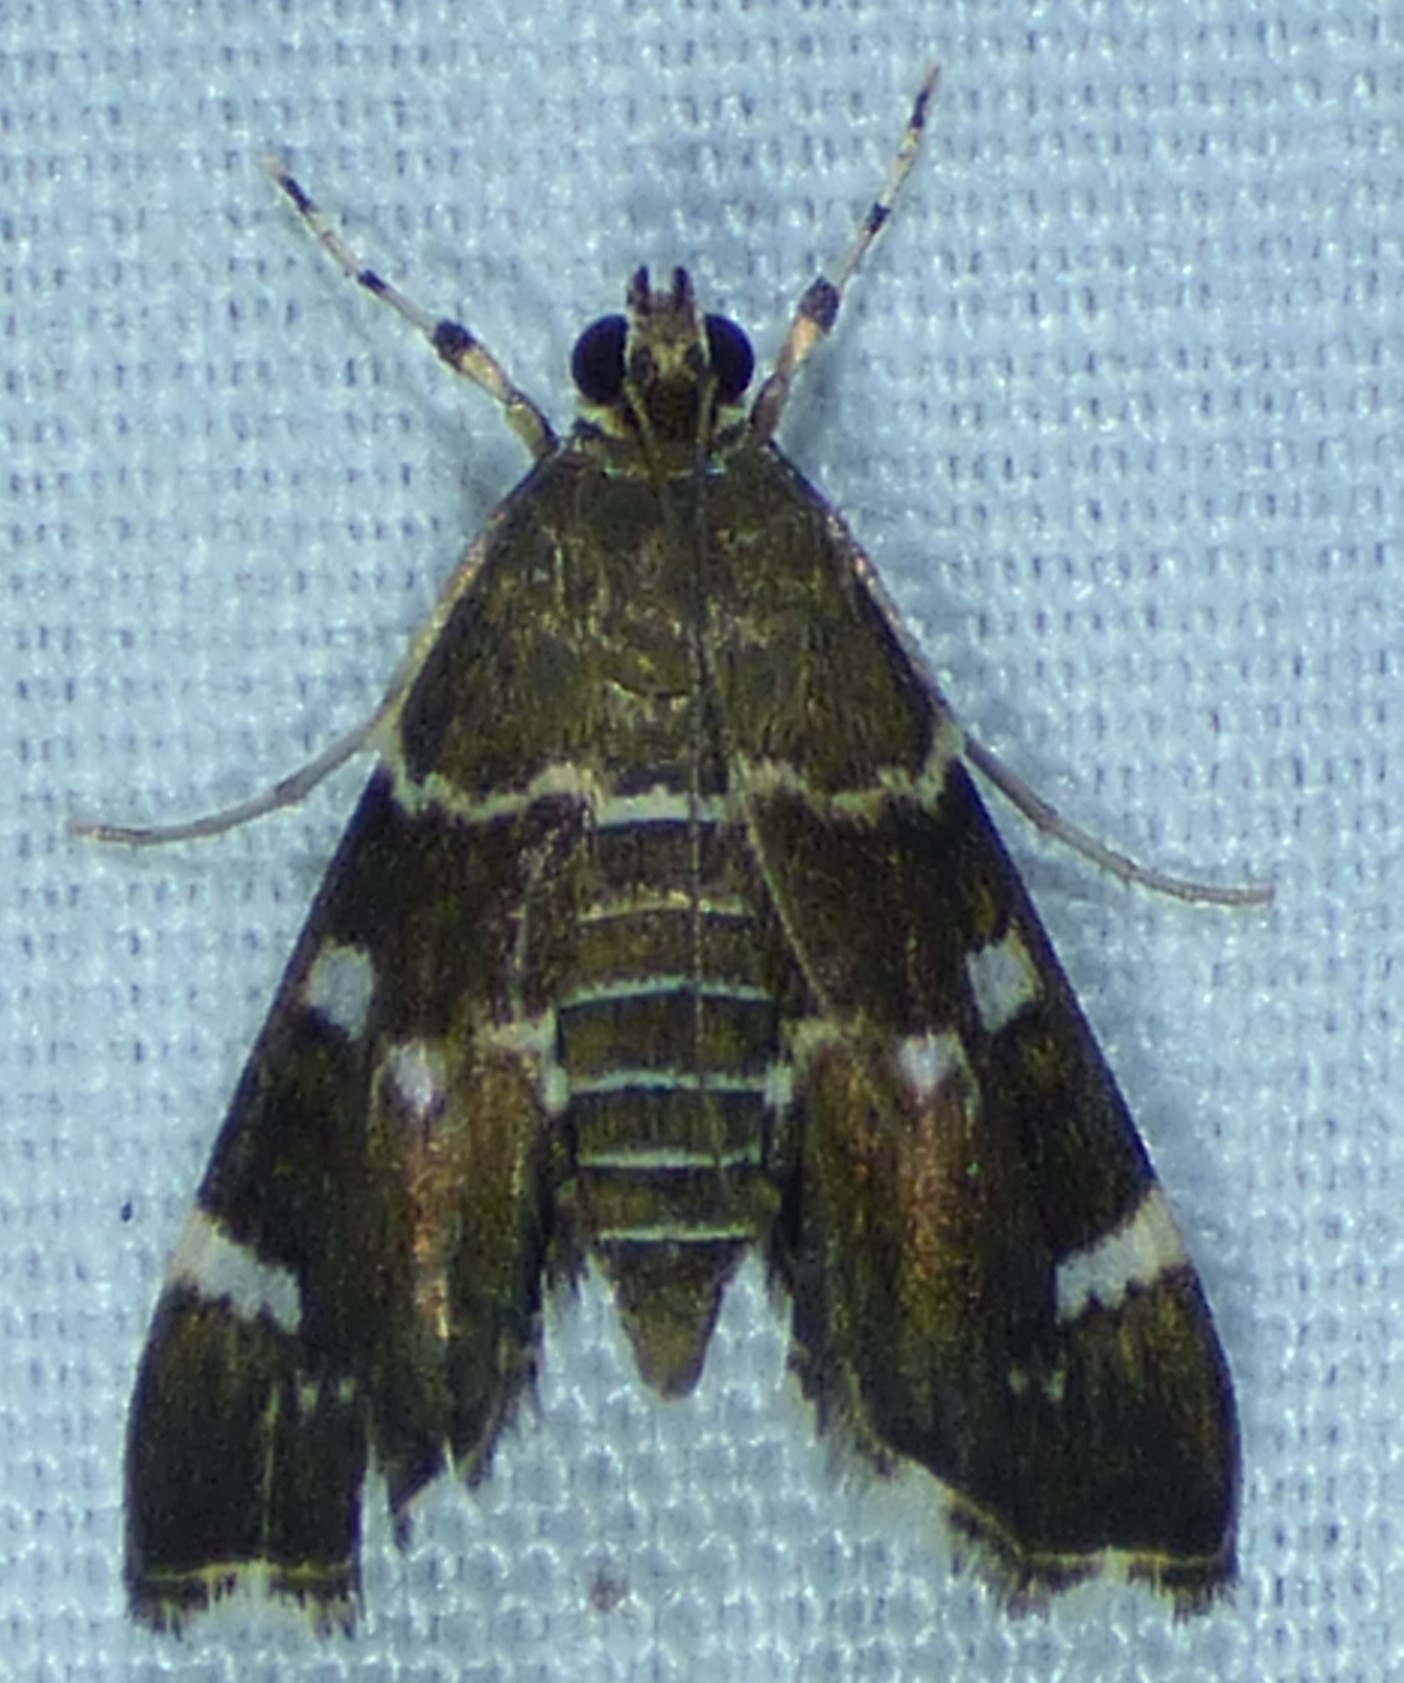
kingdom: Animalia
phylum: Arthropoda
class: Insecta
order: Lepidoptera
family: Crambidae
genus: Hymenia
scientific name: Hymenia perspectalis
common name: Spotted beet webworm
